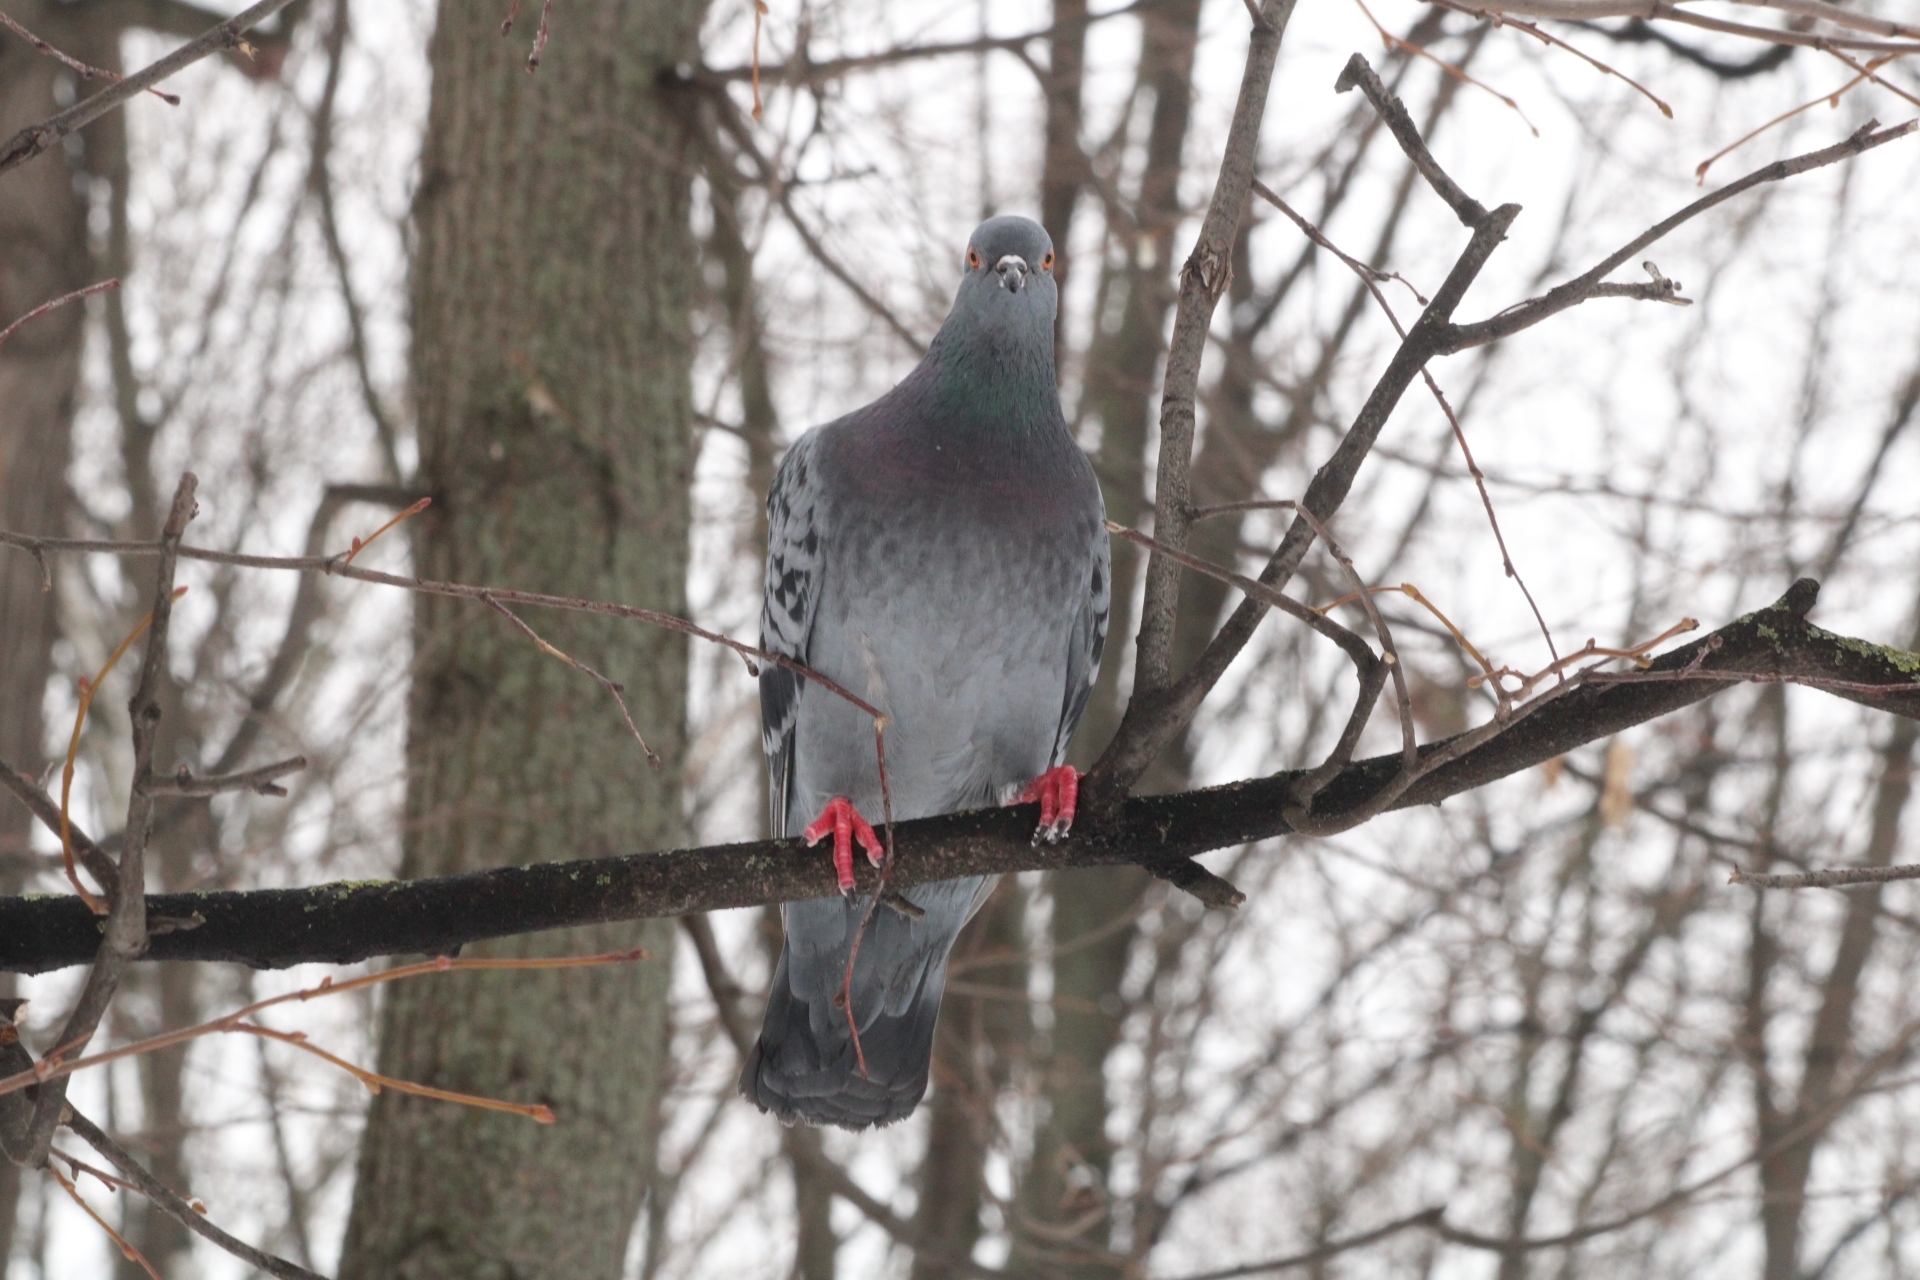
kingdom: Animalia
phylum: Chordata
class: Aves
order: Columbiformes
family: Columbidae
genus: Columba
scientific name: Columba livia
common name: Rock pigeon
